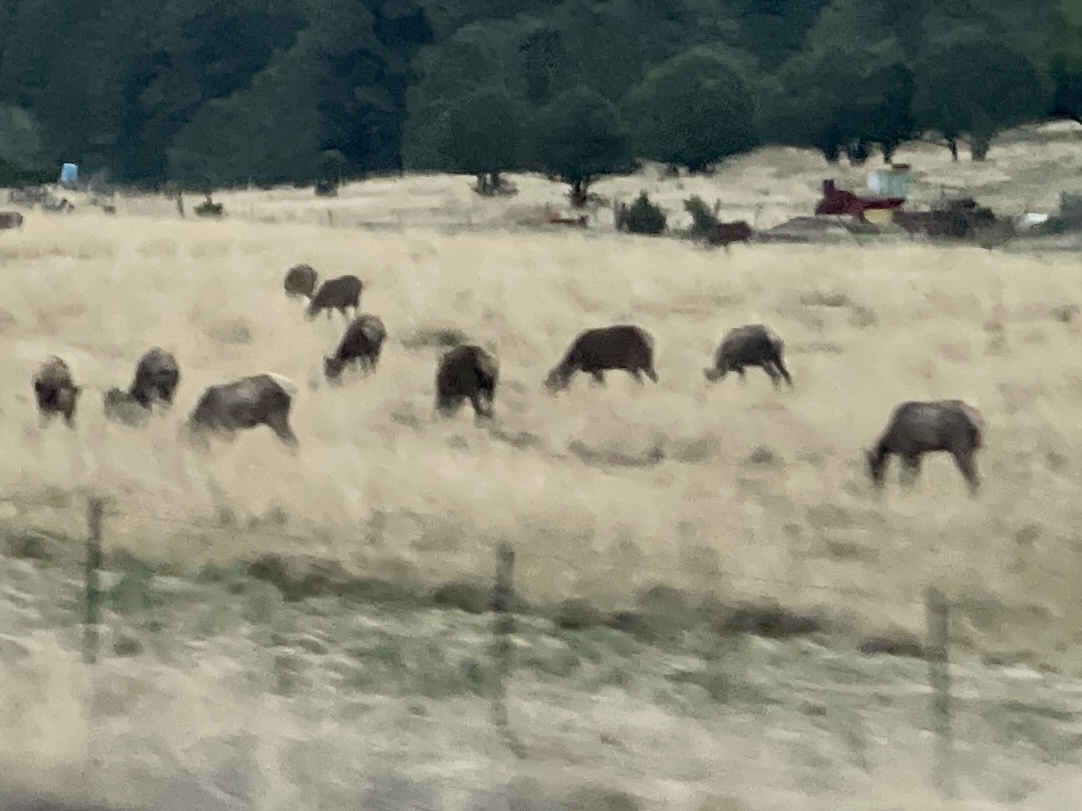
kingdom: Animalia
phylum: Chordata
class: Mammalia
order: Artiodactyla
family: Cervidae
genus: Cervus
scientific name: Cervus elaphus
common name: Red deer
